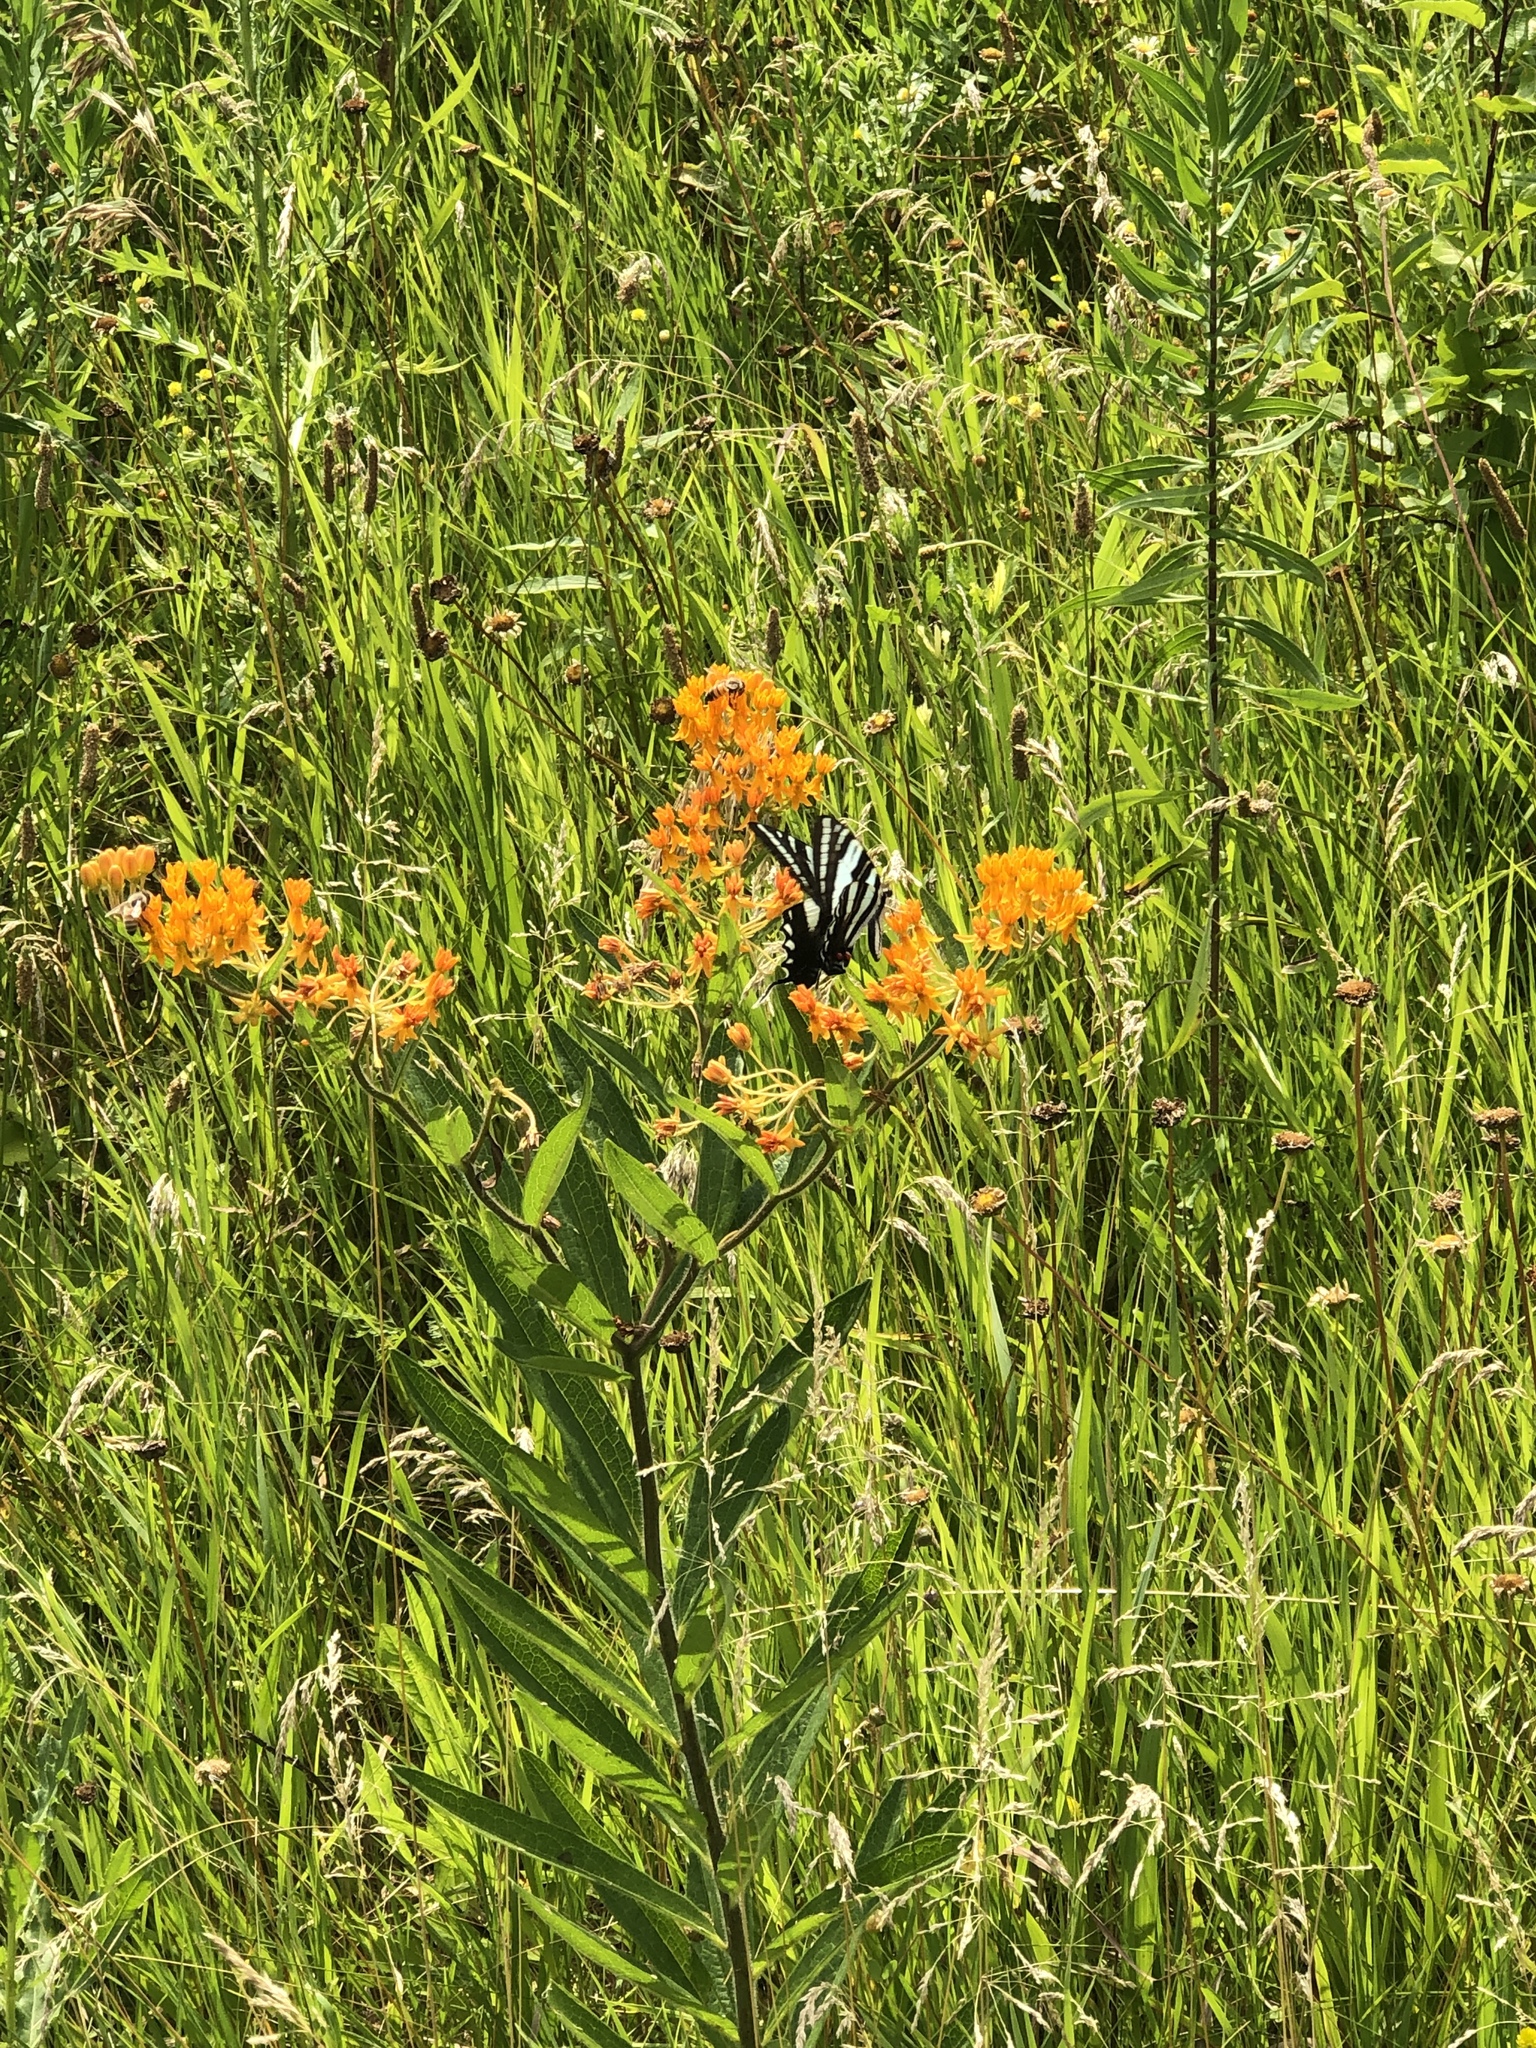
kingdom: Animalia
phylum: Arthropoda
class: Insecta
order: Lepidoptera
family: Papilionidae
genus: Protographium
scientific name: Protographium marcellus
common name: Zebra swallowtail
